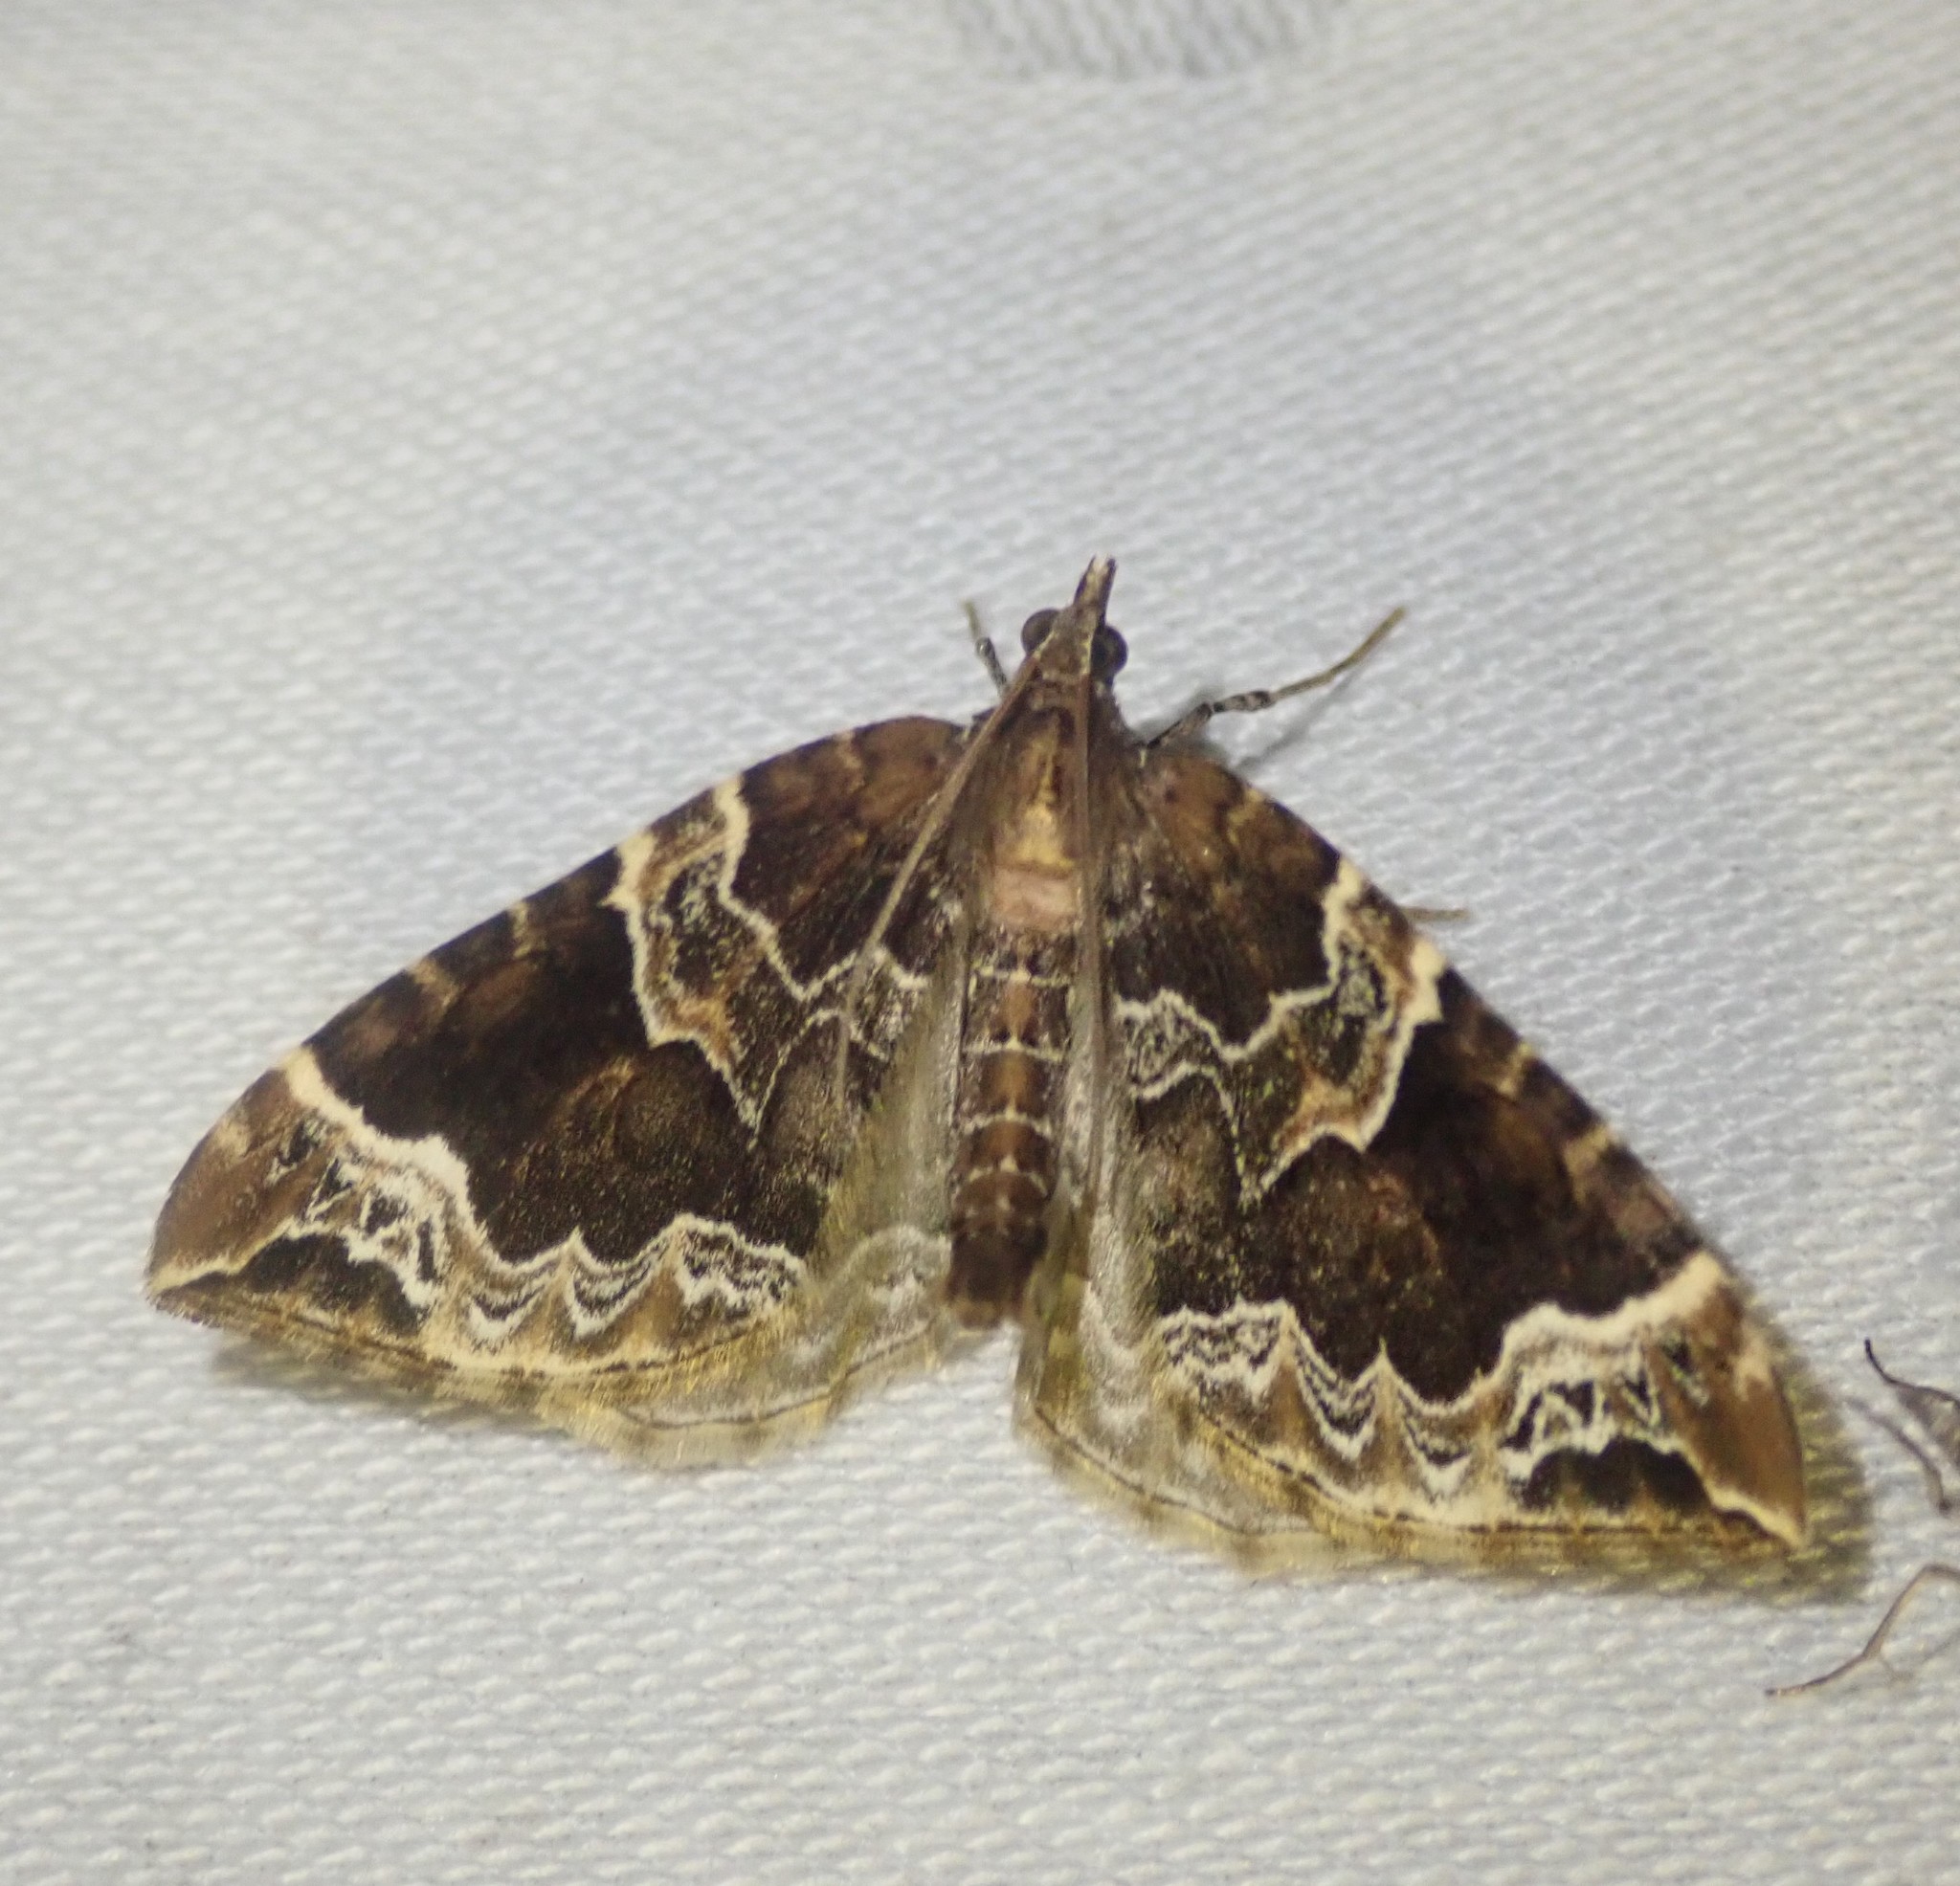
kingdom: Animalia
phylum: Arthropoda
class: Insecta
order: Lepidoptera
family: Geometridae
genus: Eulithis
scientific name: Eulithis prunata
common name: Phoenix
